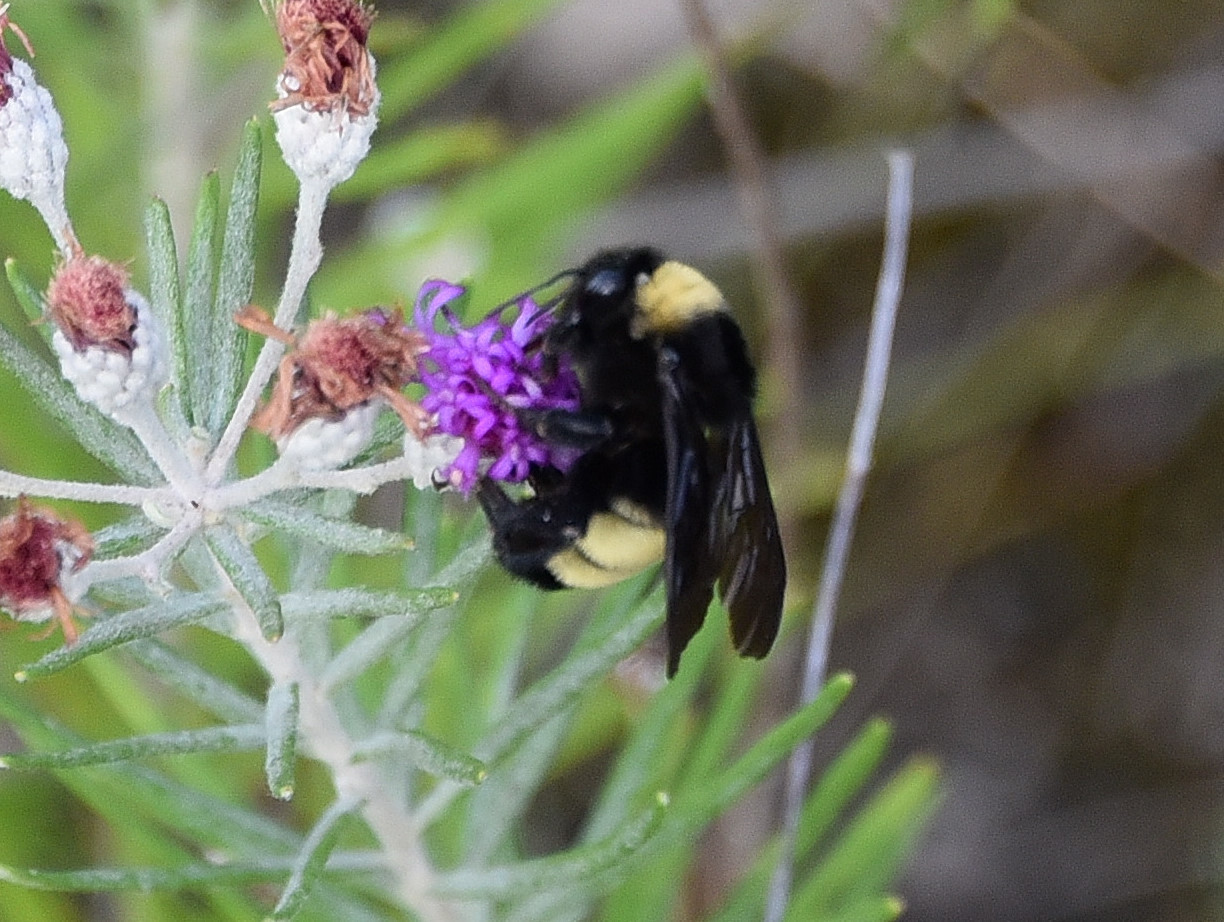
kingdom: Animalia
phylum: Arthropoda
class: Insecta
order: Hymenoptera
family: Apidae
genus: Bombus
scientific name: Bombus pensylvanicus
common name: Bumble bee
